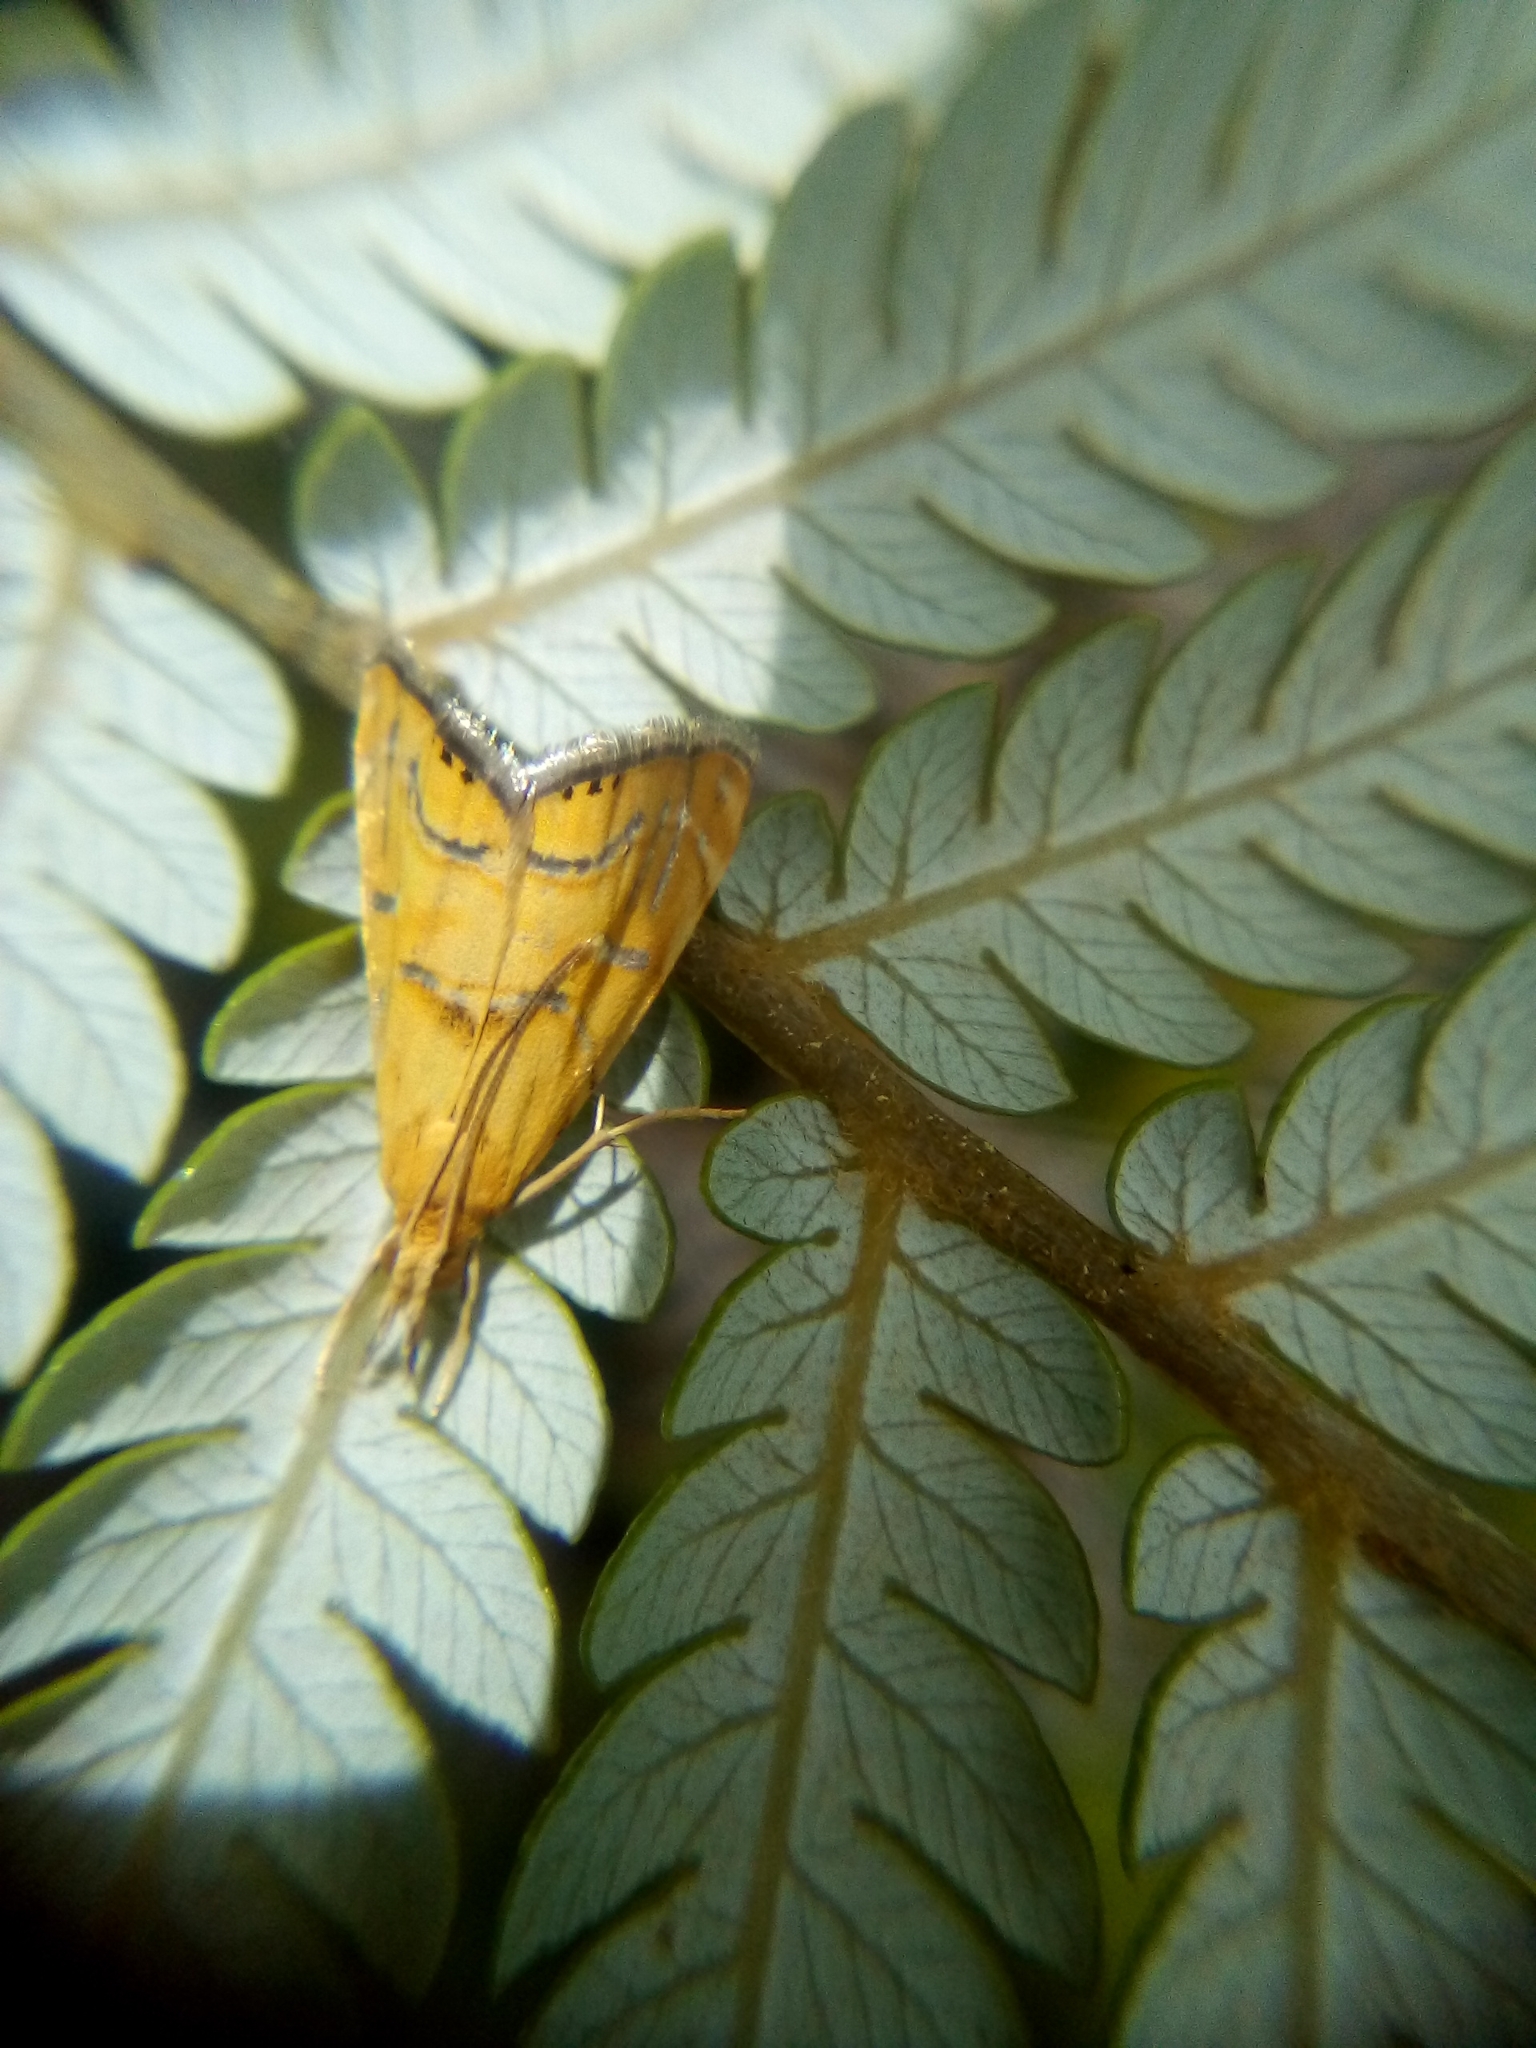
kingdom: Animalia
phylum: Arthropoda
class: Insecta
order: Lepidoptera
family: Crambidae
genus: Glaucocharis
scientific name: Glaucocharis auriscriptella
